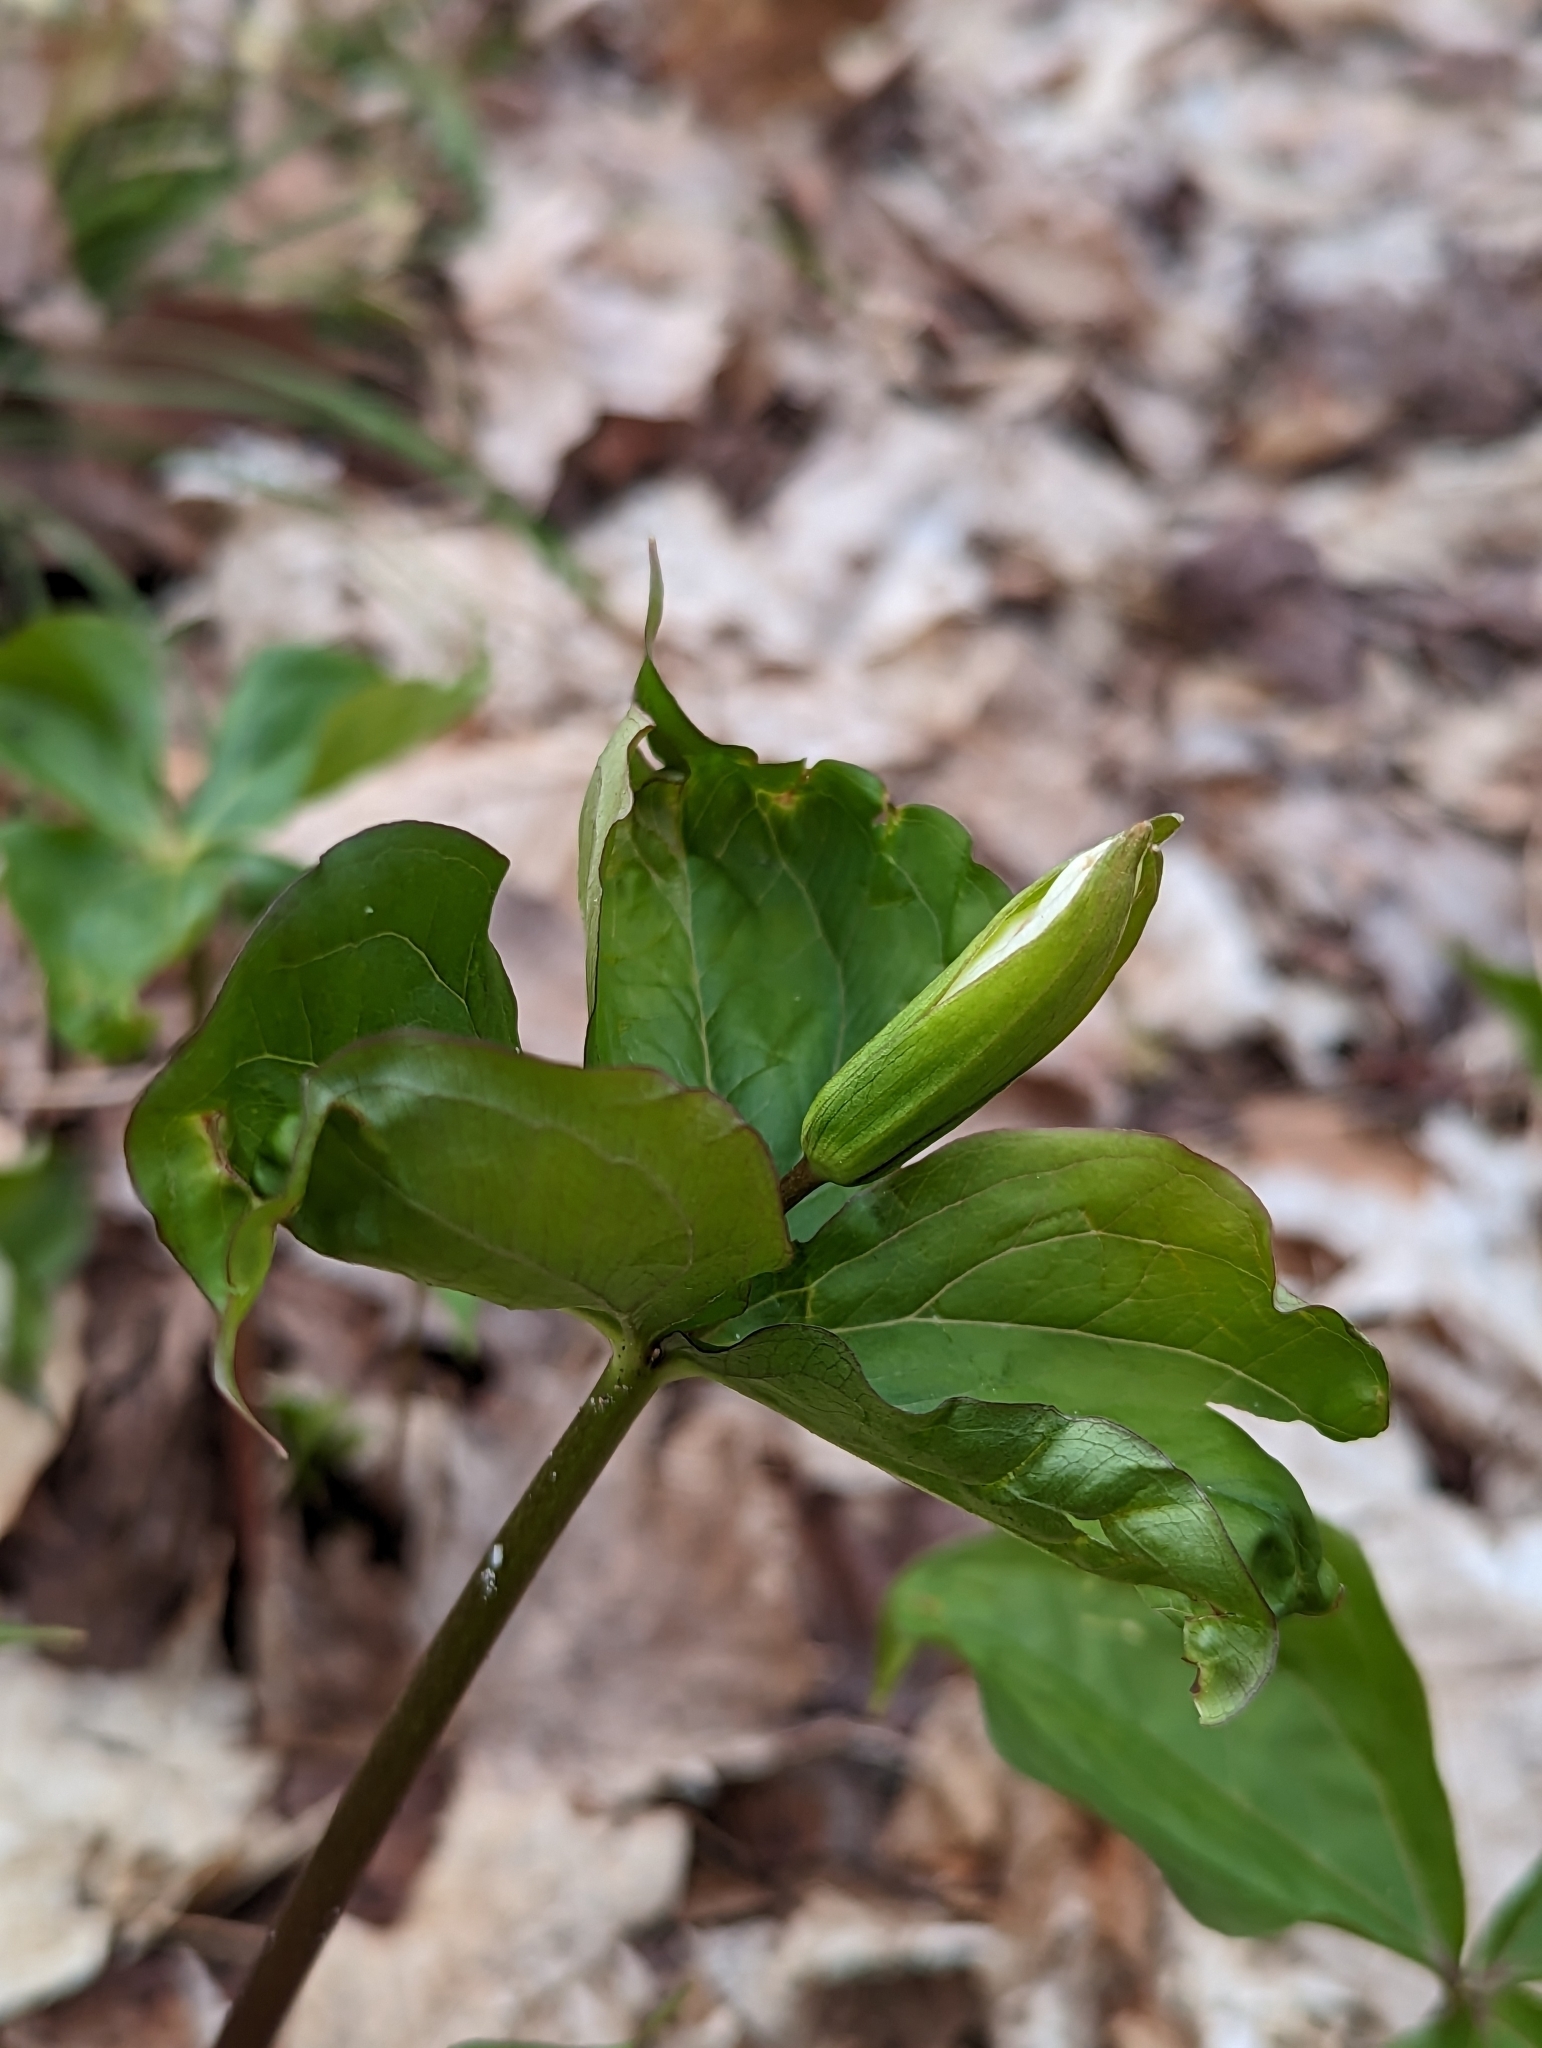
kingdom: Plantae
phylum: Tracheophyta
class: Liliopsida
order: Liliales
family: Melanthiaceae
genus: Trillium
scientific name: Trillium grandiflorum
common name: Great white trillium
